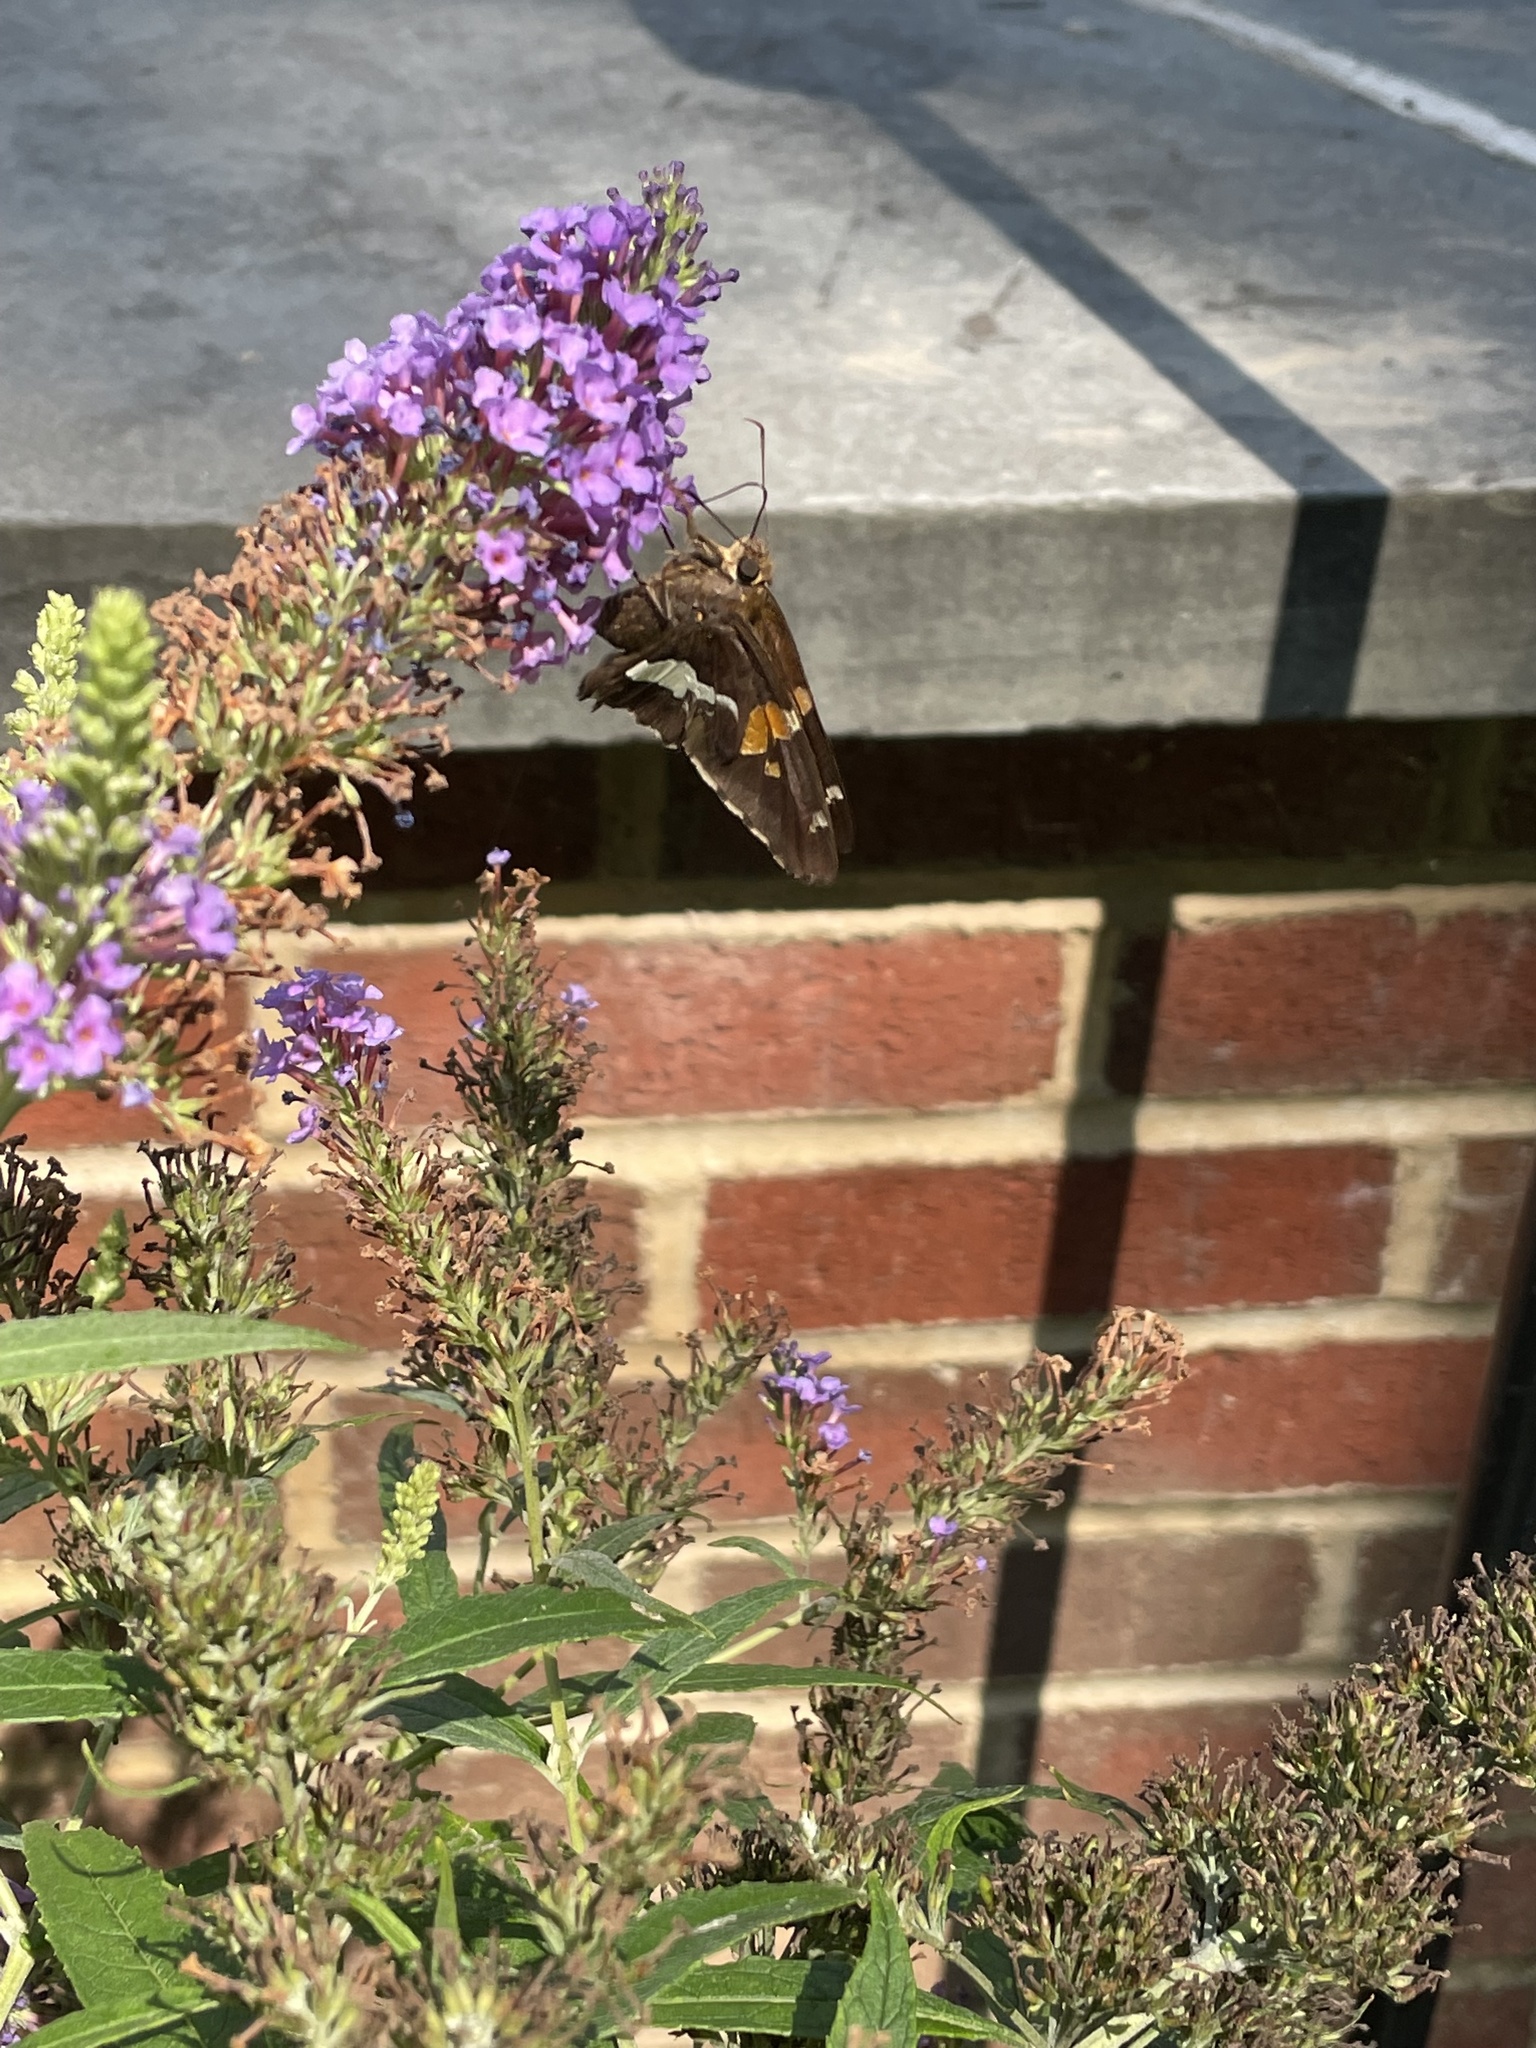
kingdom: Animalia
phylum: Arthropoda
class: Insecta
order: Lepidoptera
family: Hesperiidae
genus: Epargyreus
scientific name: Epargyreus clarus
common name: Silver-spotted skipper
